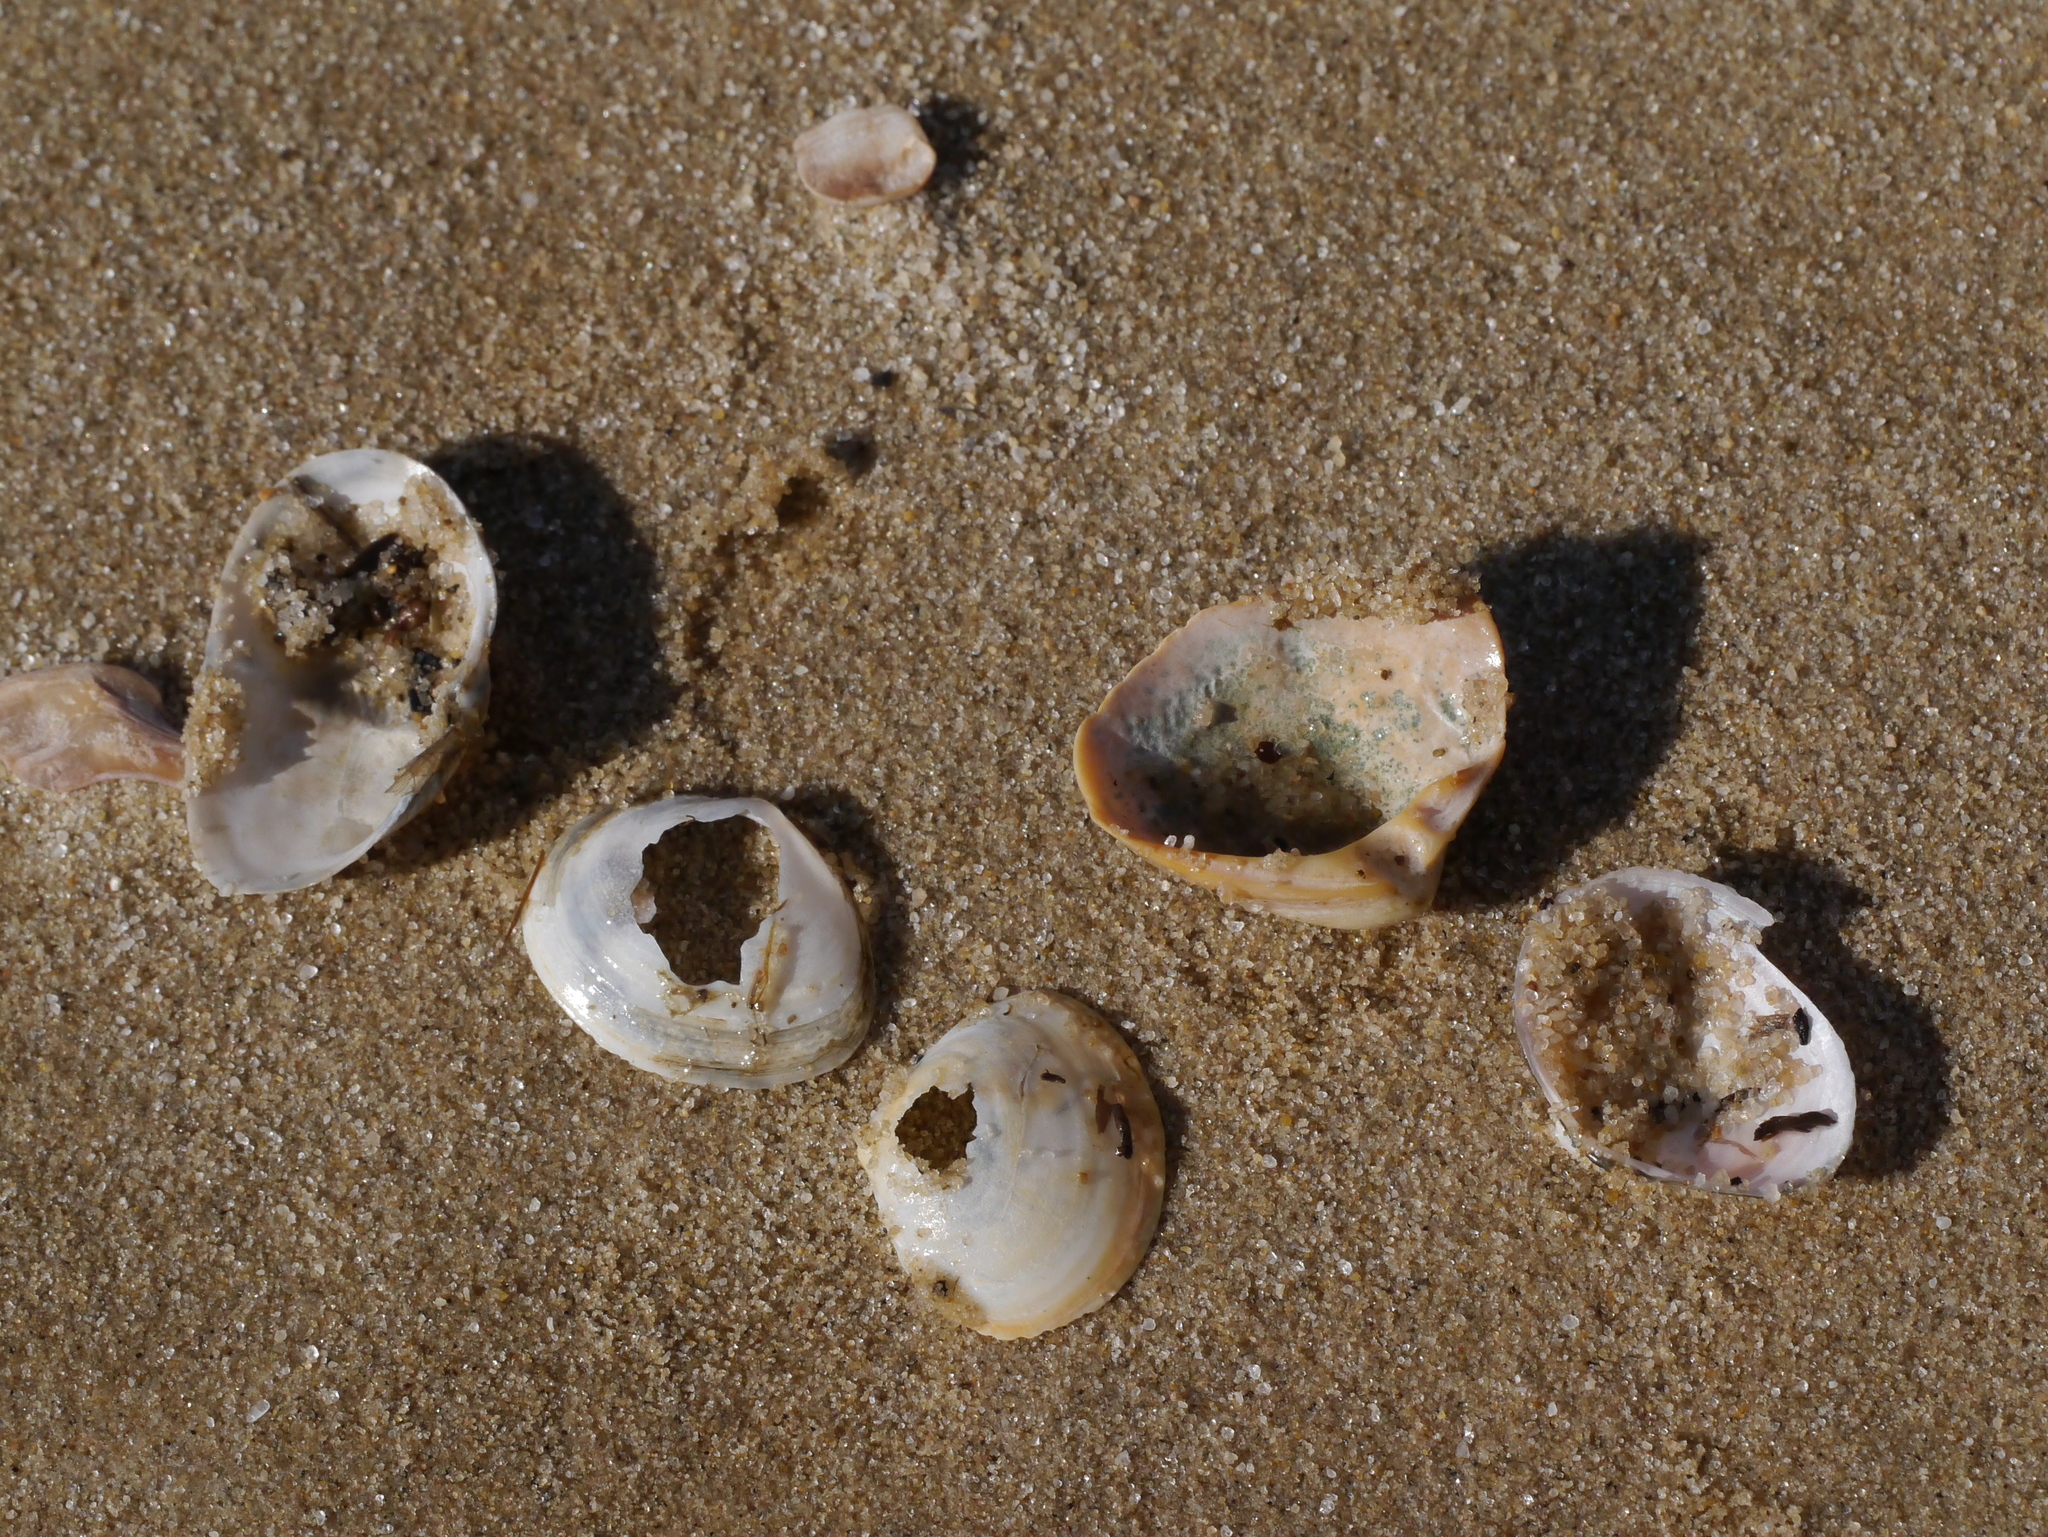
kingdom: Animalia
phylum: Mollusca
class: Bivalvia
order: Cardiida
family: Tellinidae
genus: Macoma
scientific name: Macoma petalum
